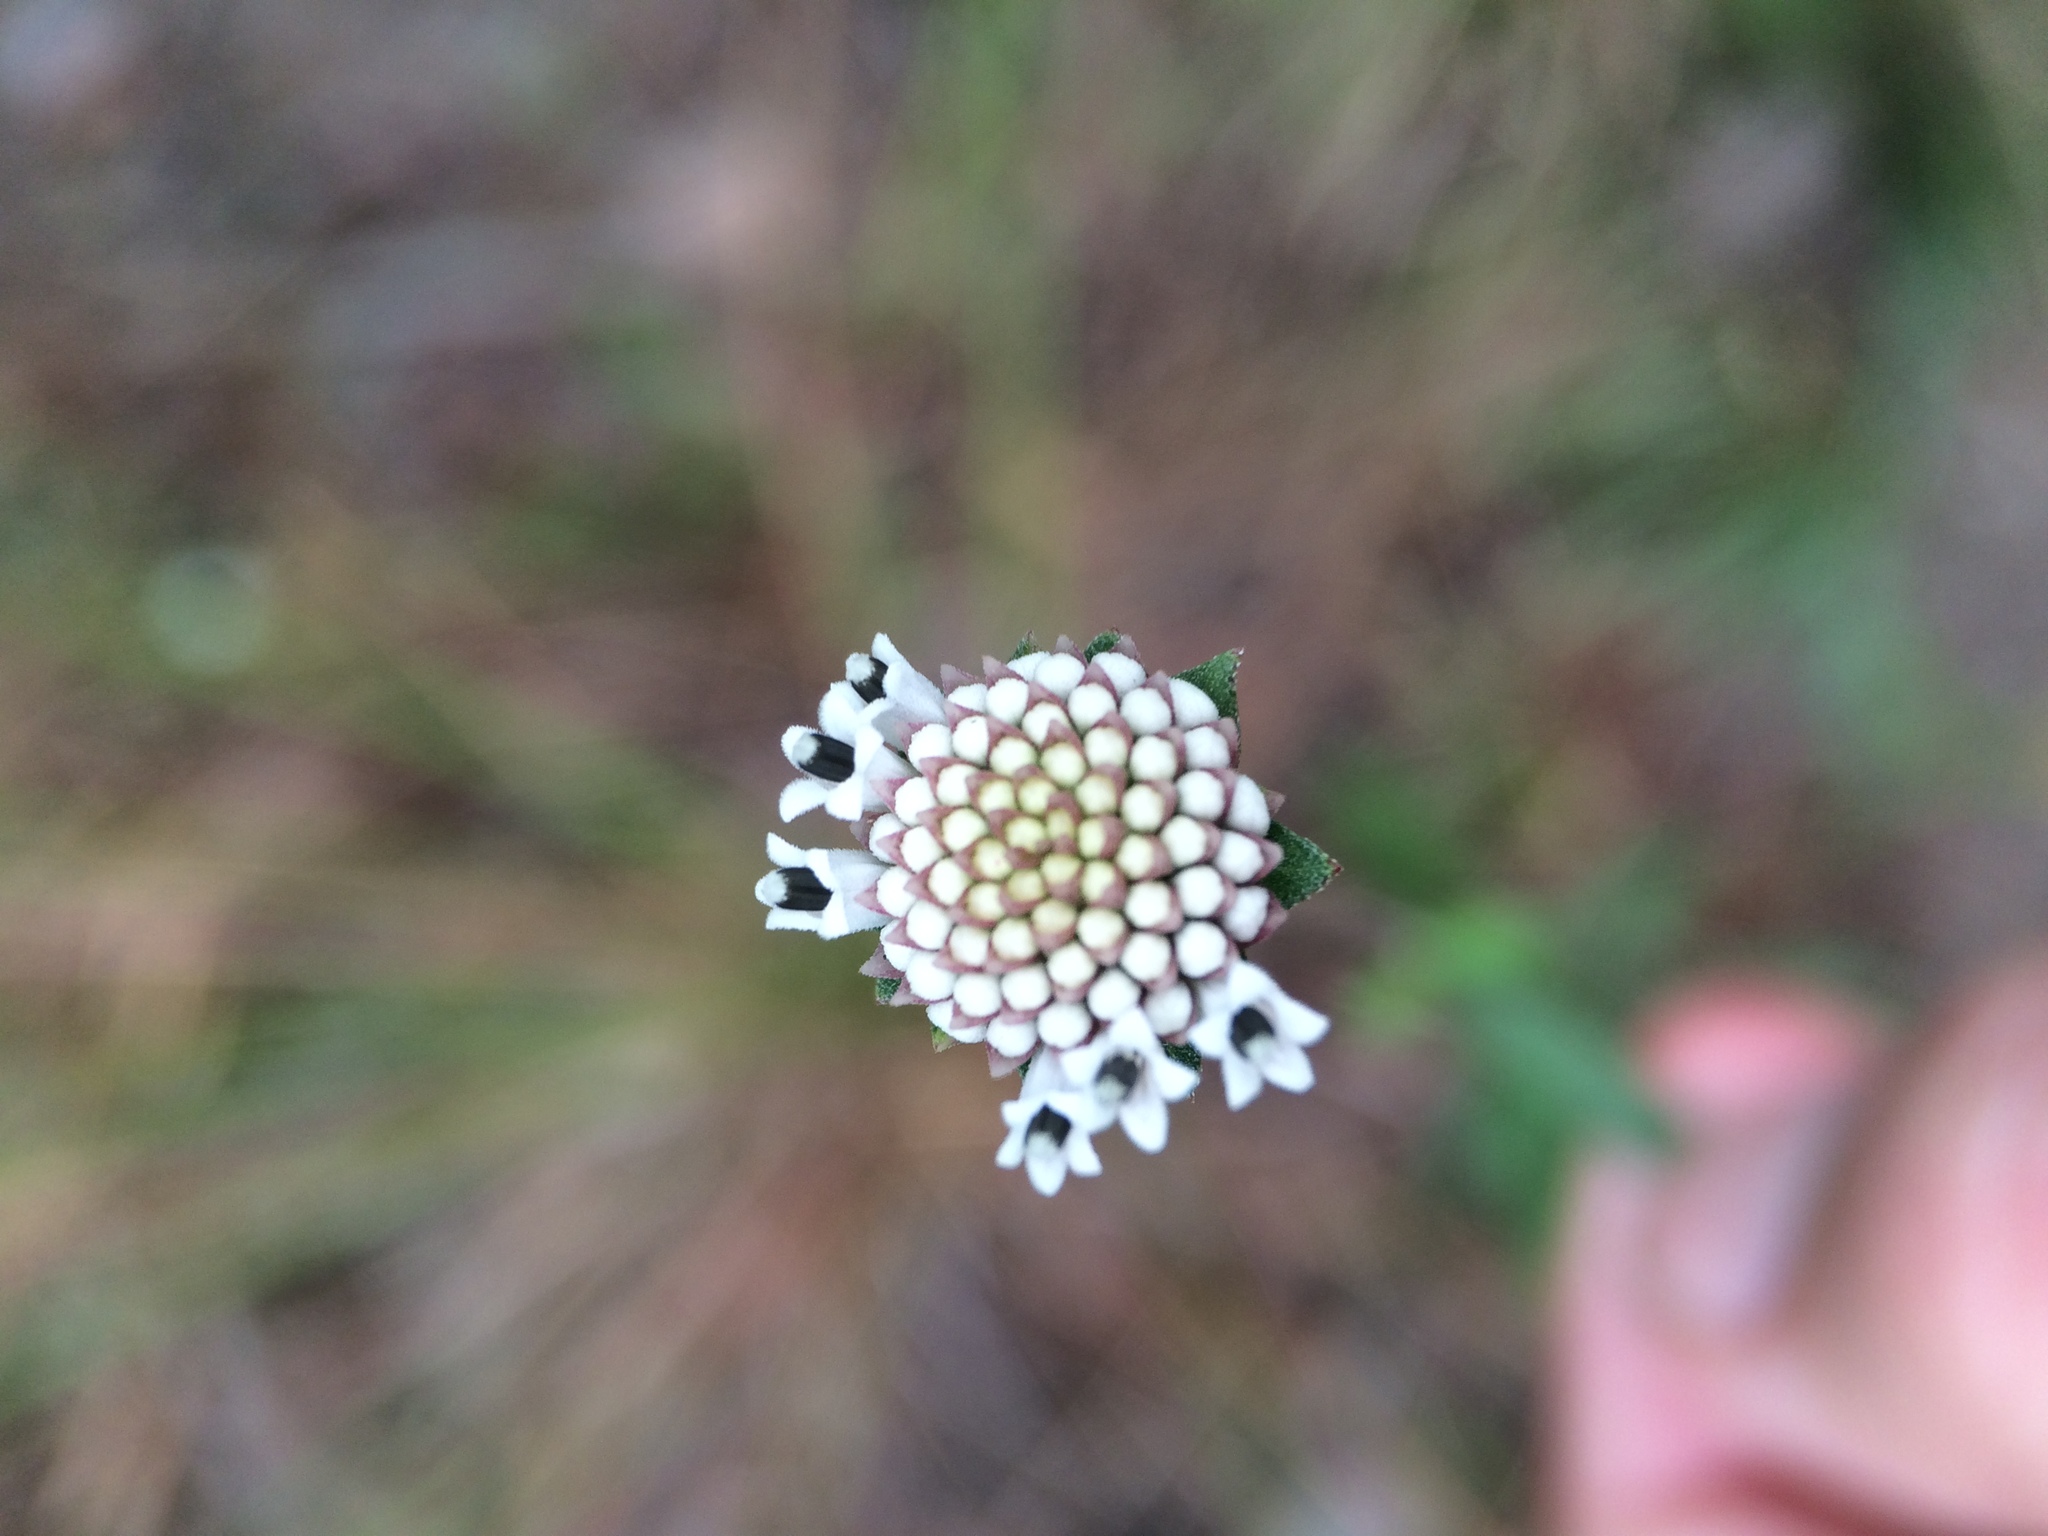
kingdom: Plantae
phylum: Tracheophyta
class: Magnoliopsida
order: Asterales
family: Asteraceae
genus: Melanthera
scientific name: Melanthera
